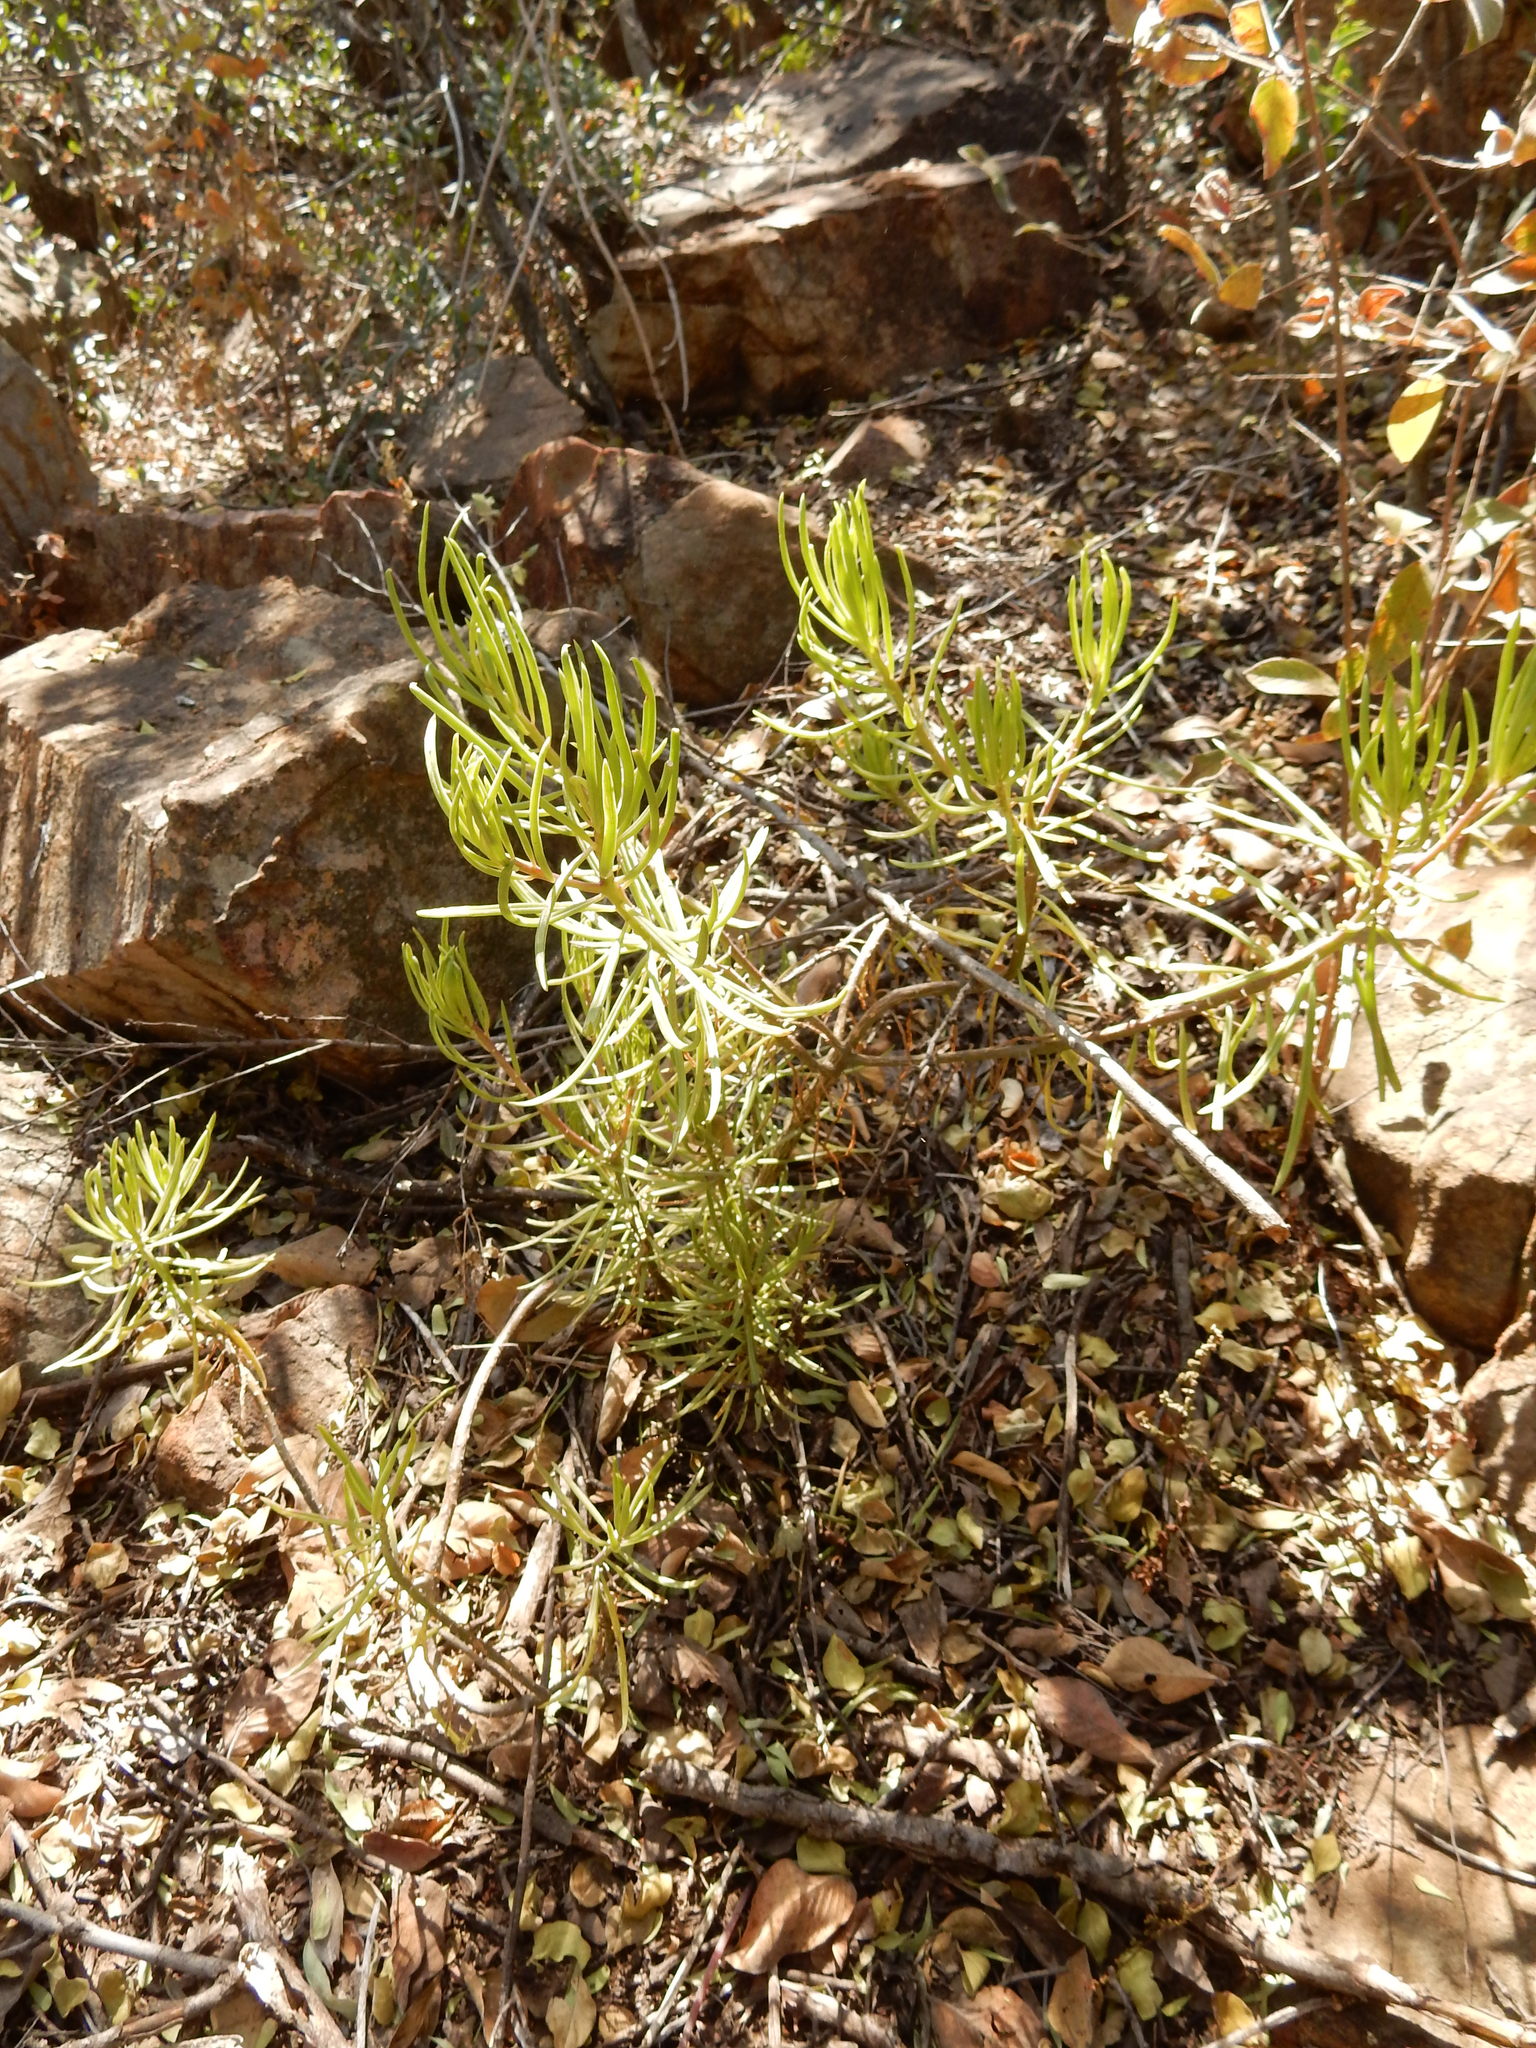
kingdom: Plantae
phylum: Tracheophyta
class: Magnoliopsida
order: Asterales
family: Asteraceae
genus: Kleinia
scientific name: Kleinia barbertonica
